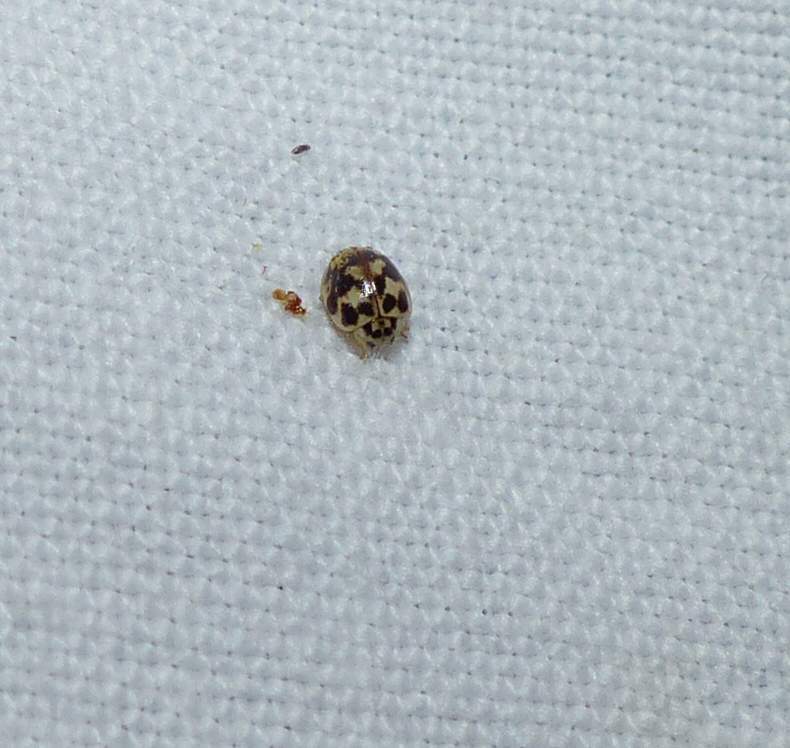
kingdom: Animalia
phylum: Arthropoda
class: Insecta
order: Coleoptera
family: Coccinellidae
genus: Psyllobora
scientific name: Psyllobora vigintimaculata
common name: Ladybird beetle
